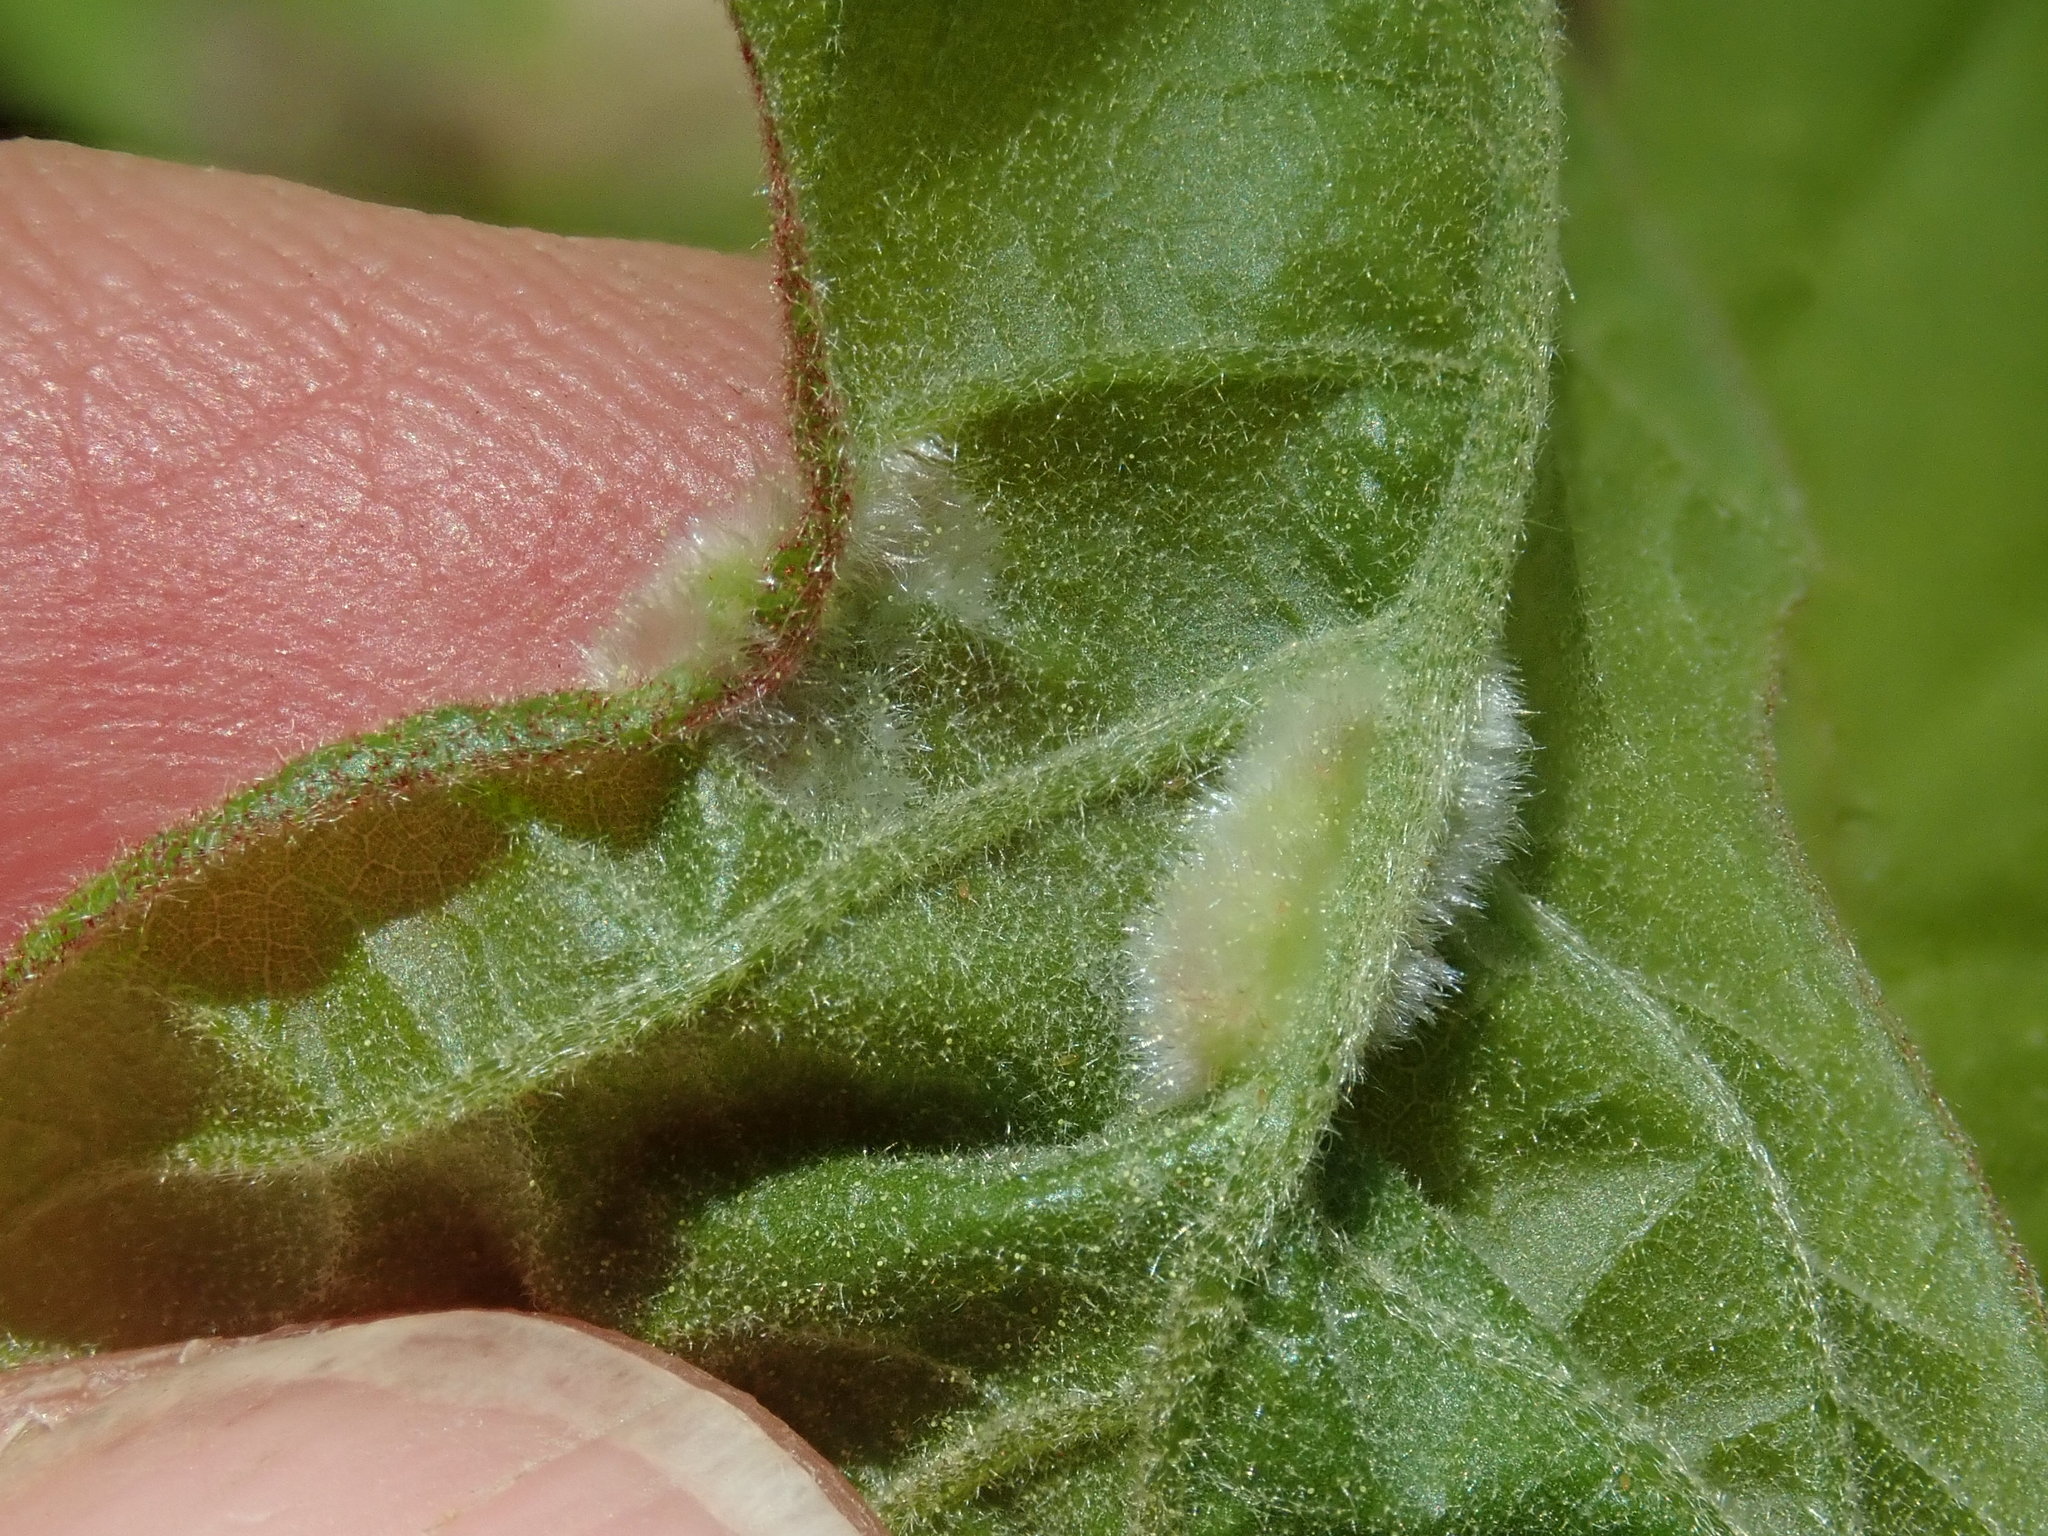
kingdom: Animalia
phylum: Arthropoda
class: Insecta
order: Diptera
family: Cecidomyiidae
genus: Macrodiplosis
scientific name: Macrodiplosis niveipila
